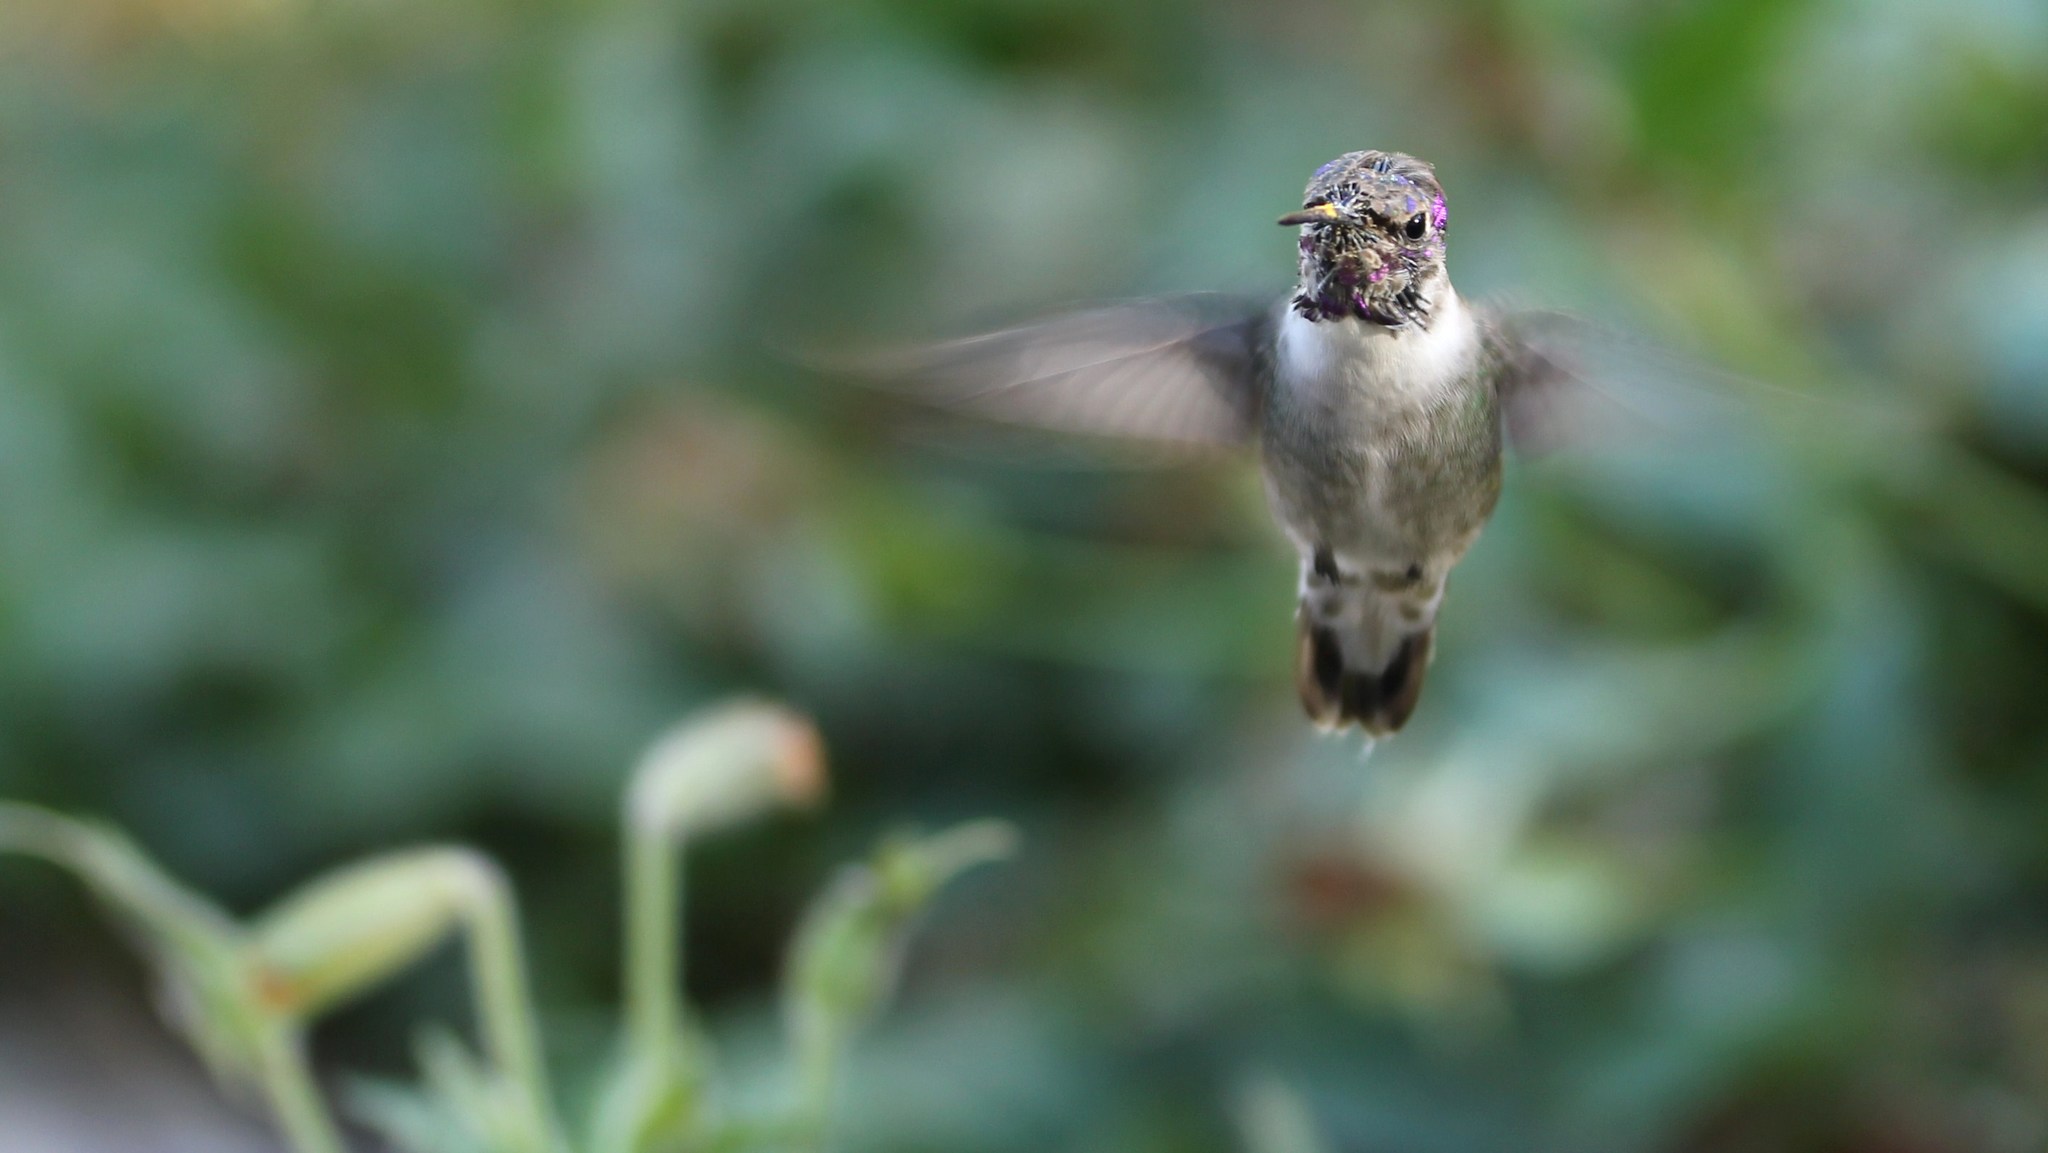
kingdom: Animalia
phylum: Chordata
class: Aves
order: Apodiformes
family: Trochilidae
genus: Calypte
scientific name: Calypte anna
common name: Anna's hummingbird
